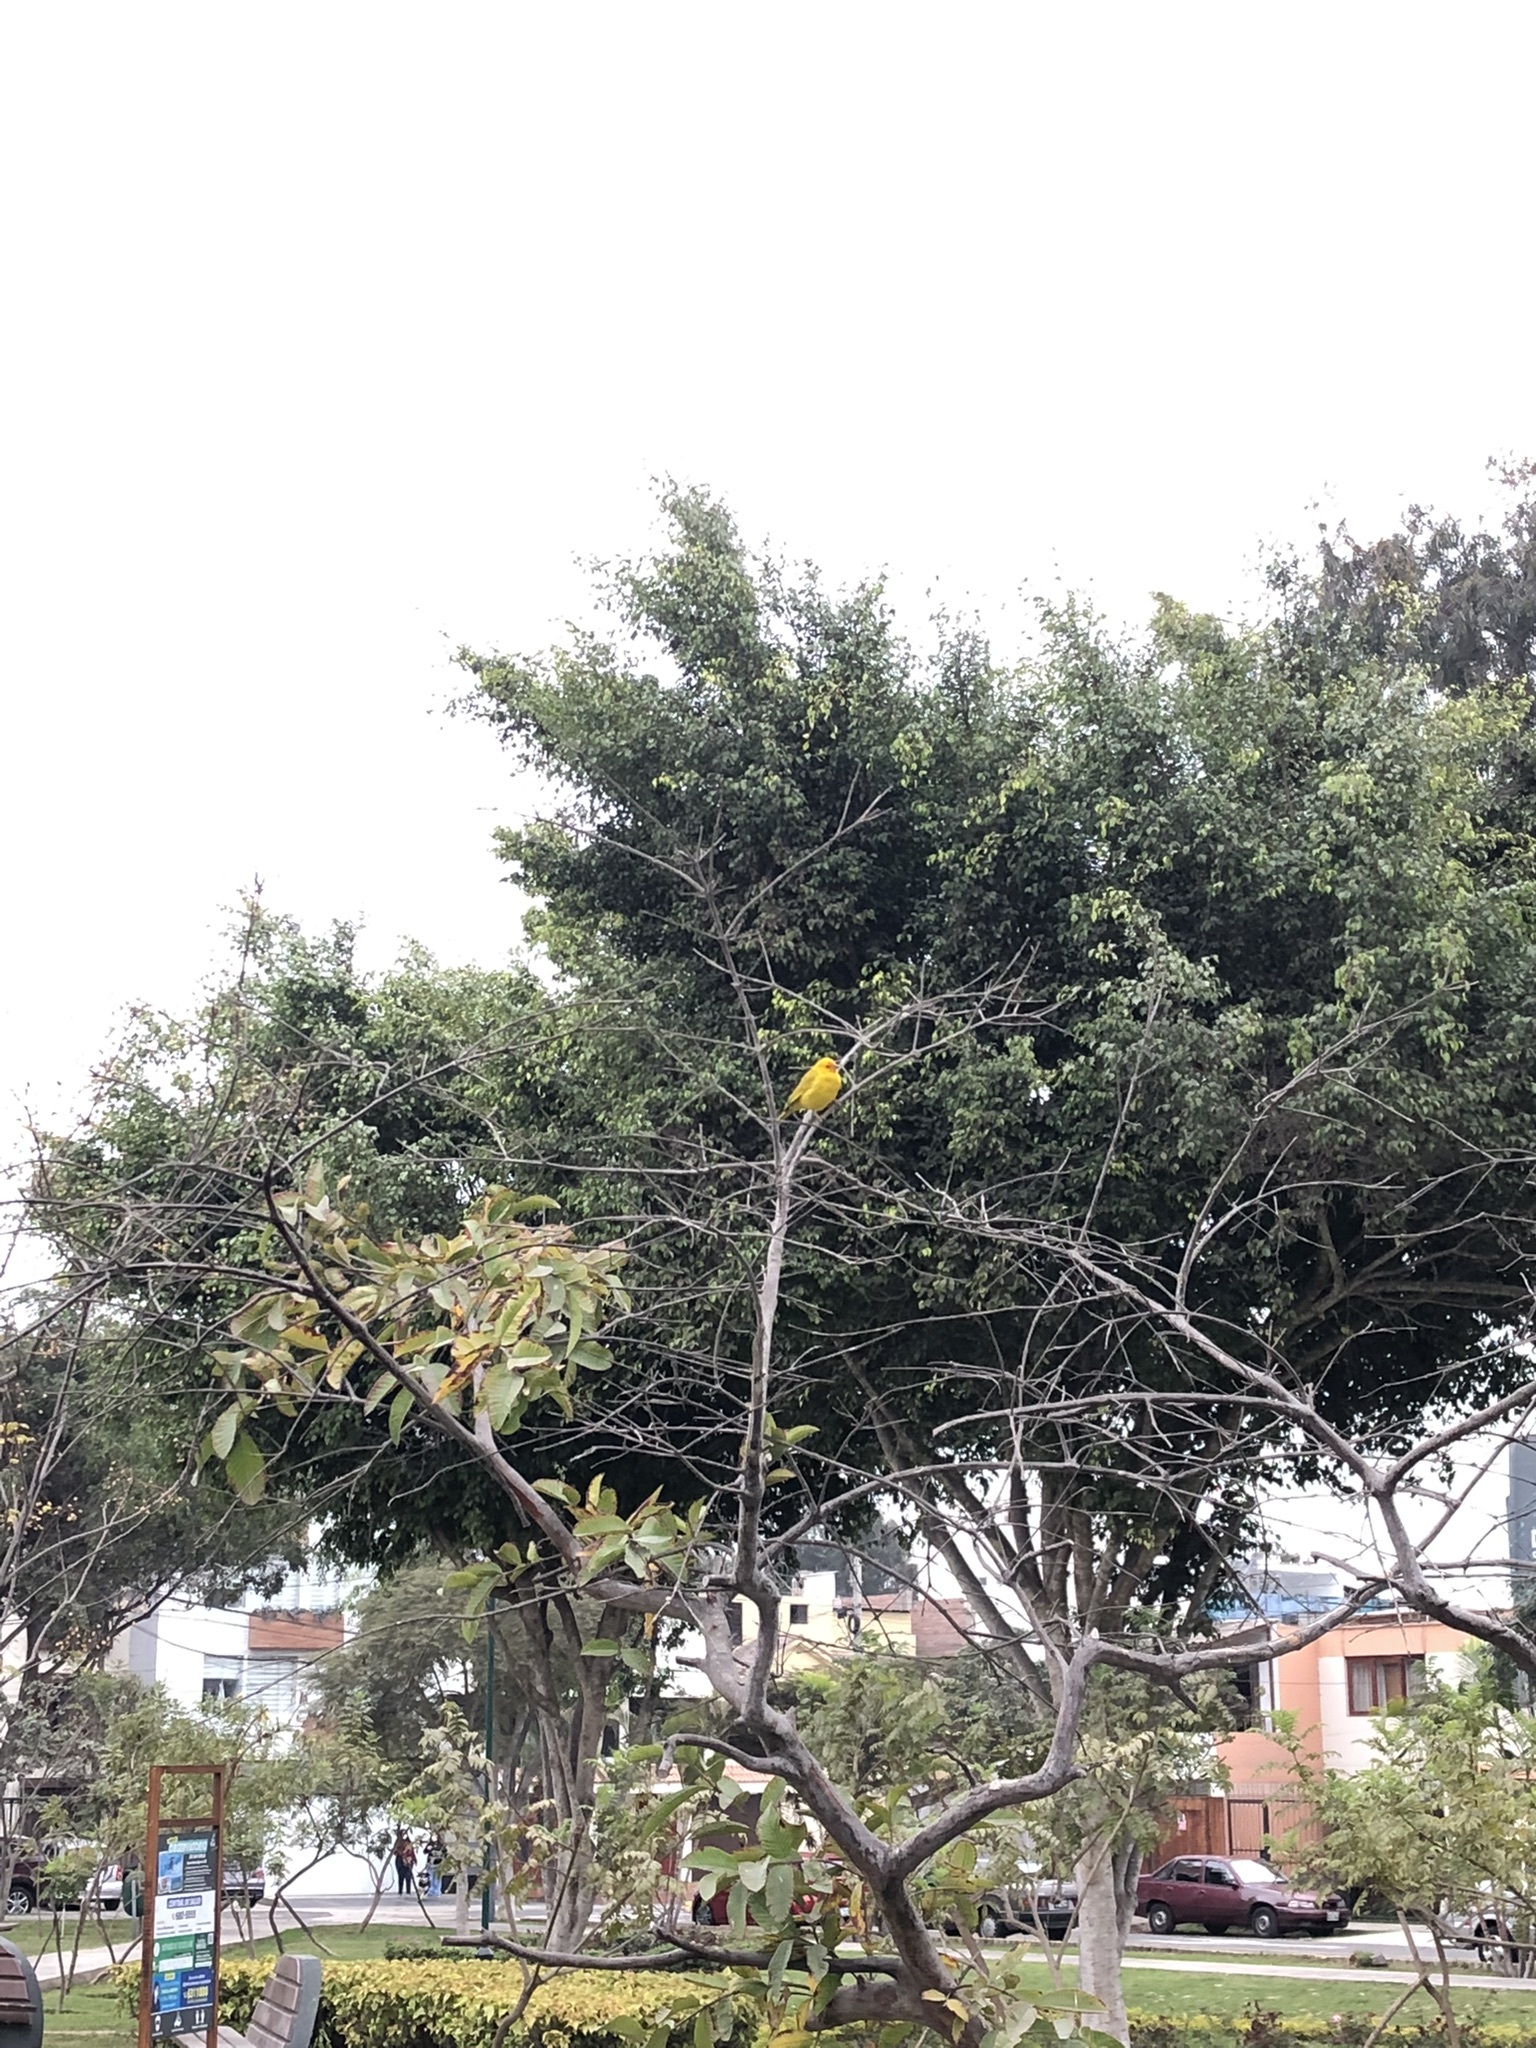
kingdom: Animalia
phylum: Chordata
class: Aves
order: Passeriformes
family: Thraupidae
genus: Sicalis
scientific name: Sicalis flaveola
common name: Saffron finch
